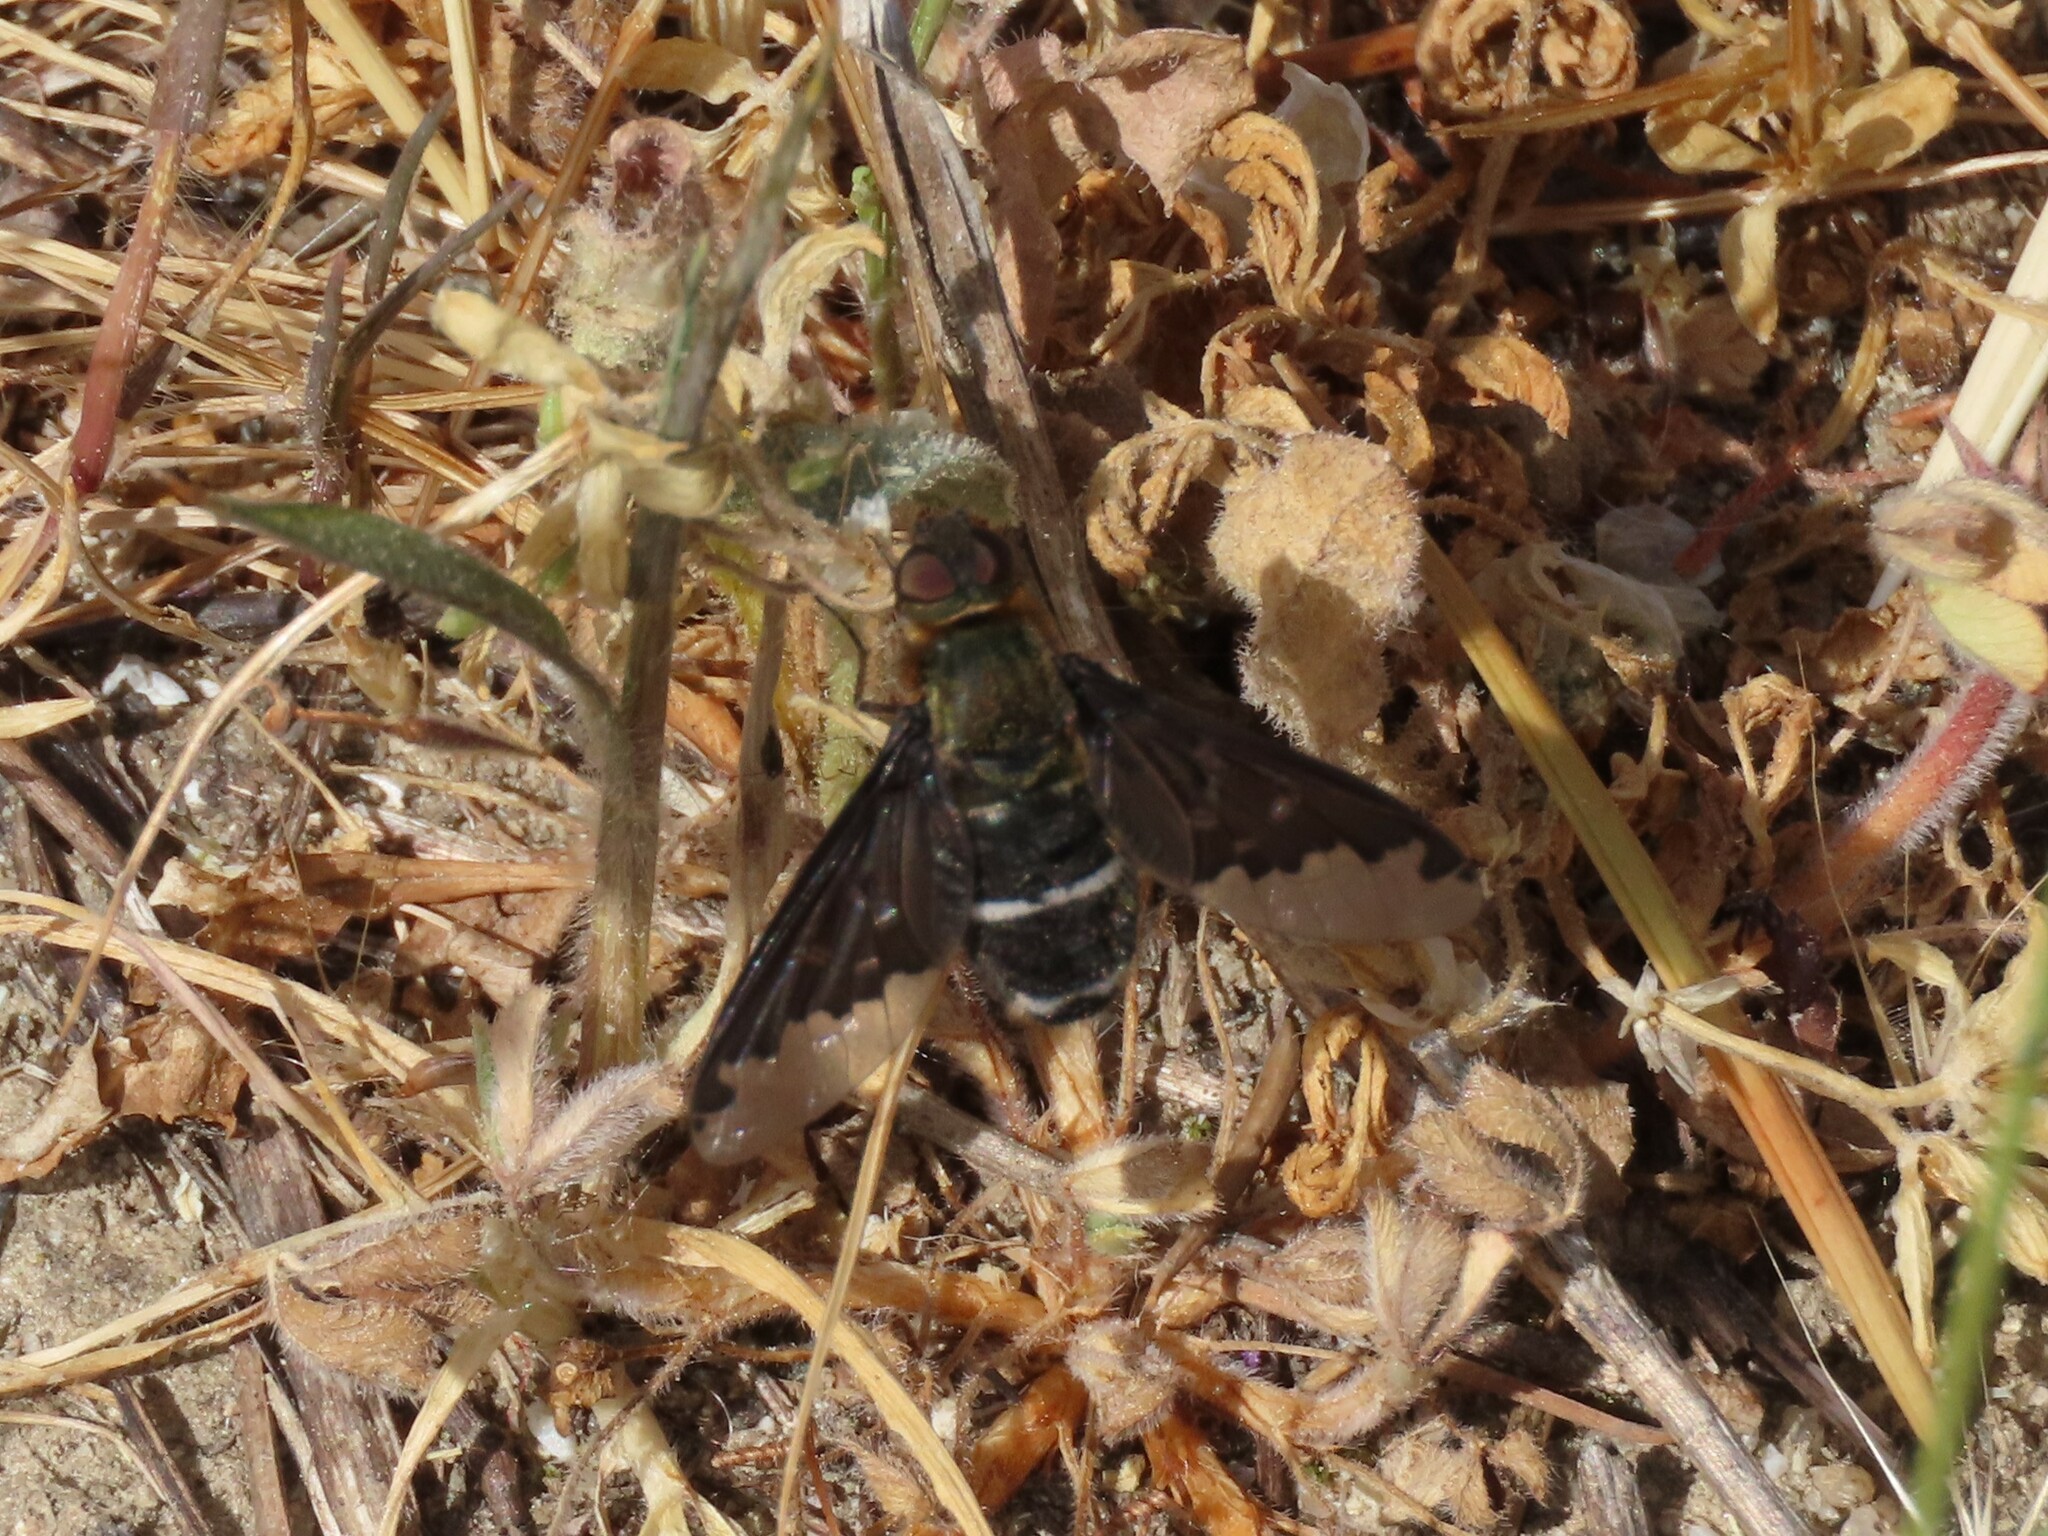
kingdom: Animalia
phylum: Arthropoda
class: Insecta
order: Diptera
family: Bombyliidae
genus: Hemipenthes
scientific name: Hemipenthes velutina
